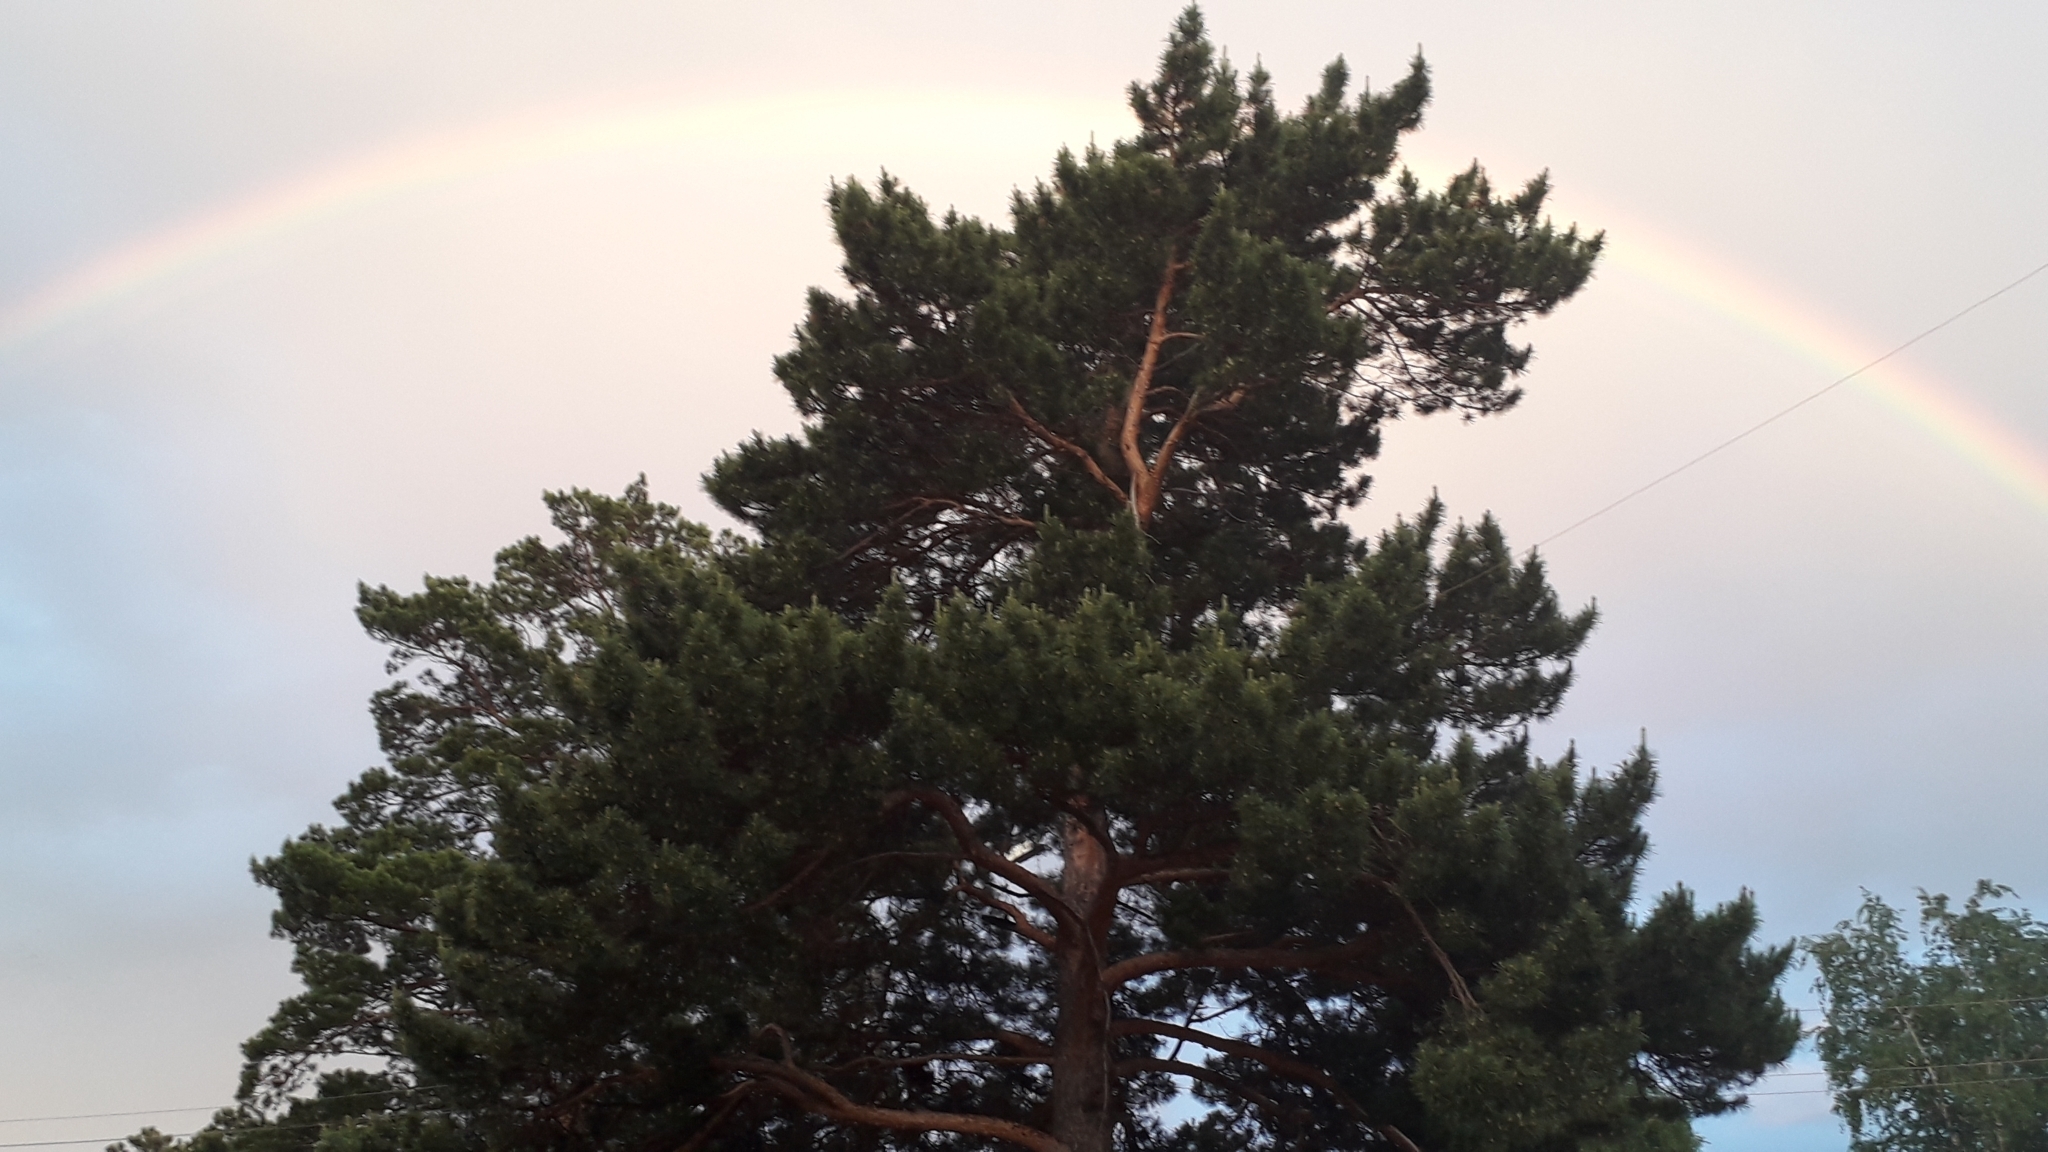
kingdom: Plantae
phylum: Tracheophyta
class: Pinopsida
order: Pinales
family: Pinaceae
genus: Pinus
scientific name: Pinus sylvestris
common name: Scots pine
